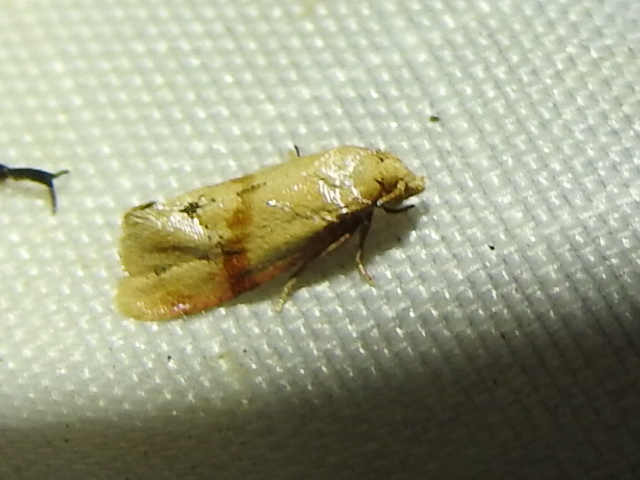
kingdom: Animalia
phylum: Arthropoda
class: Insecta
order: Lepidoptera
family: Tortricidae
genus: Cochylis
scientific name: Cochylis caulocatax
